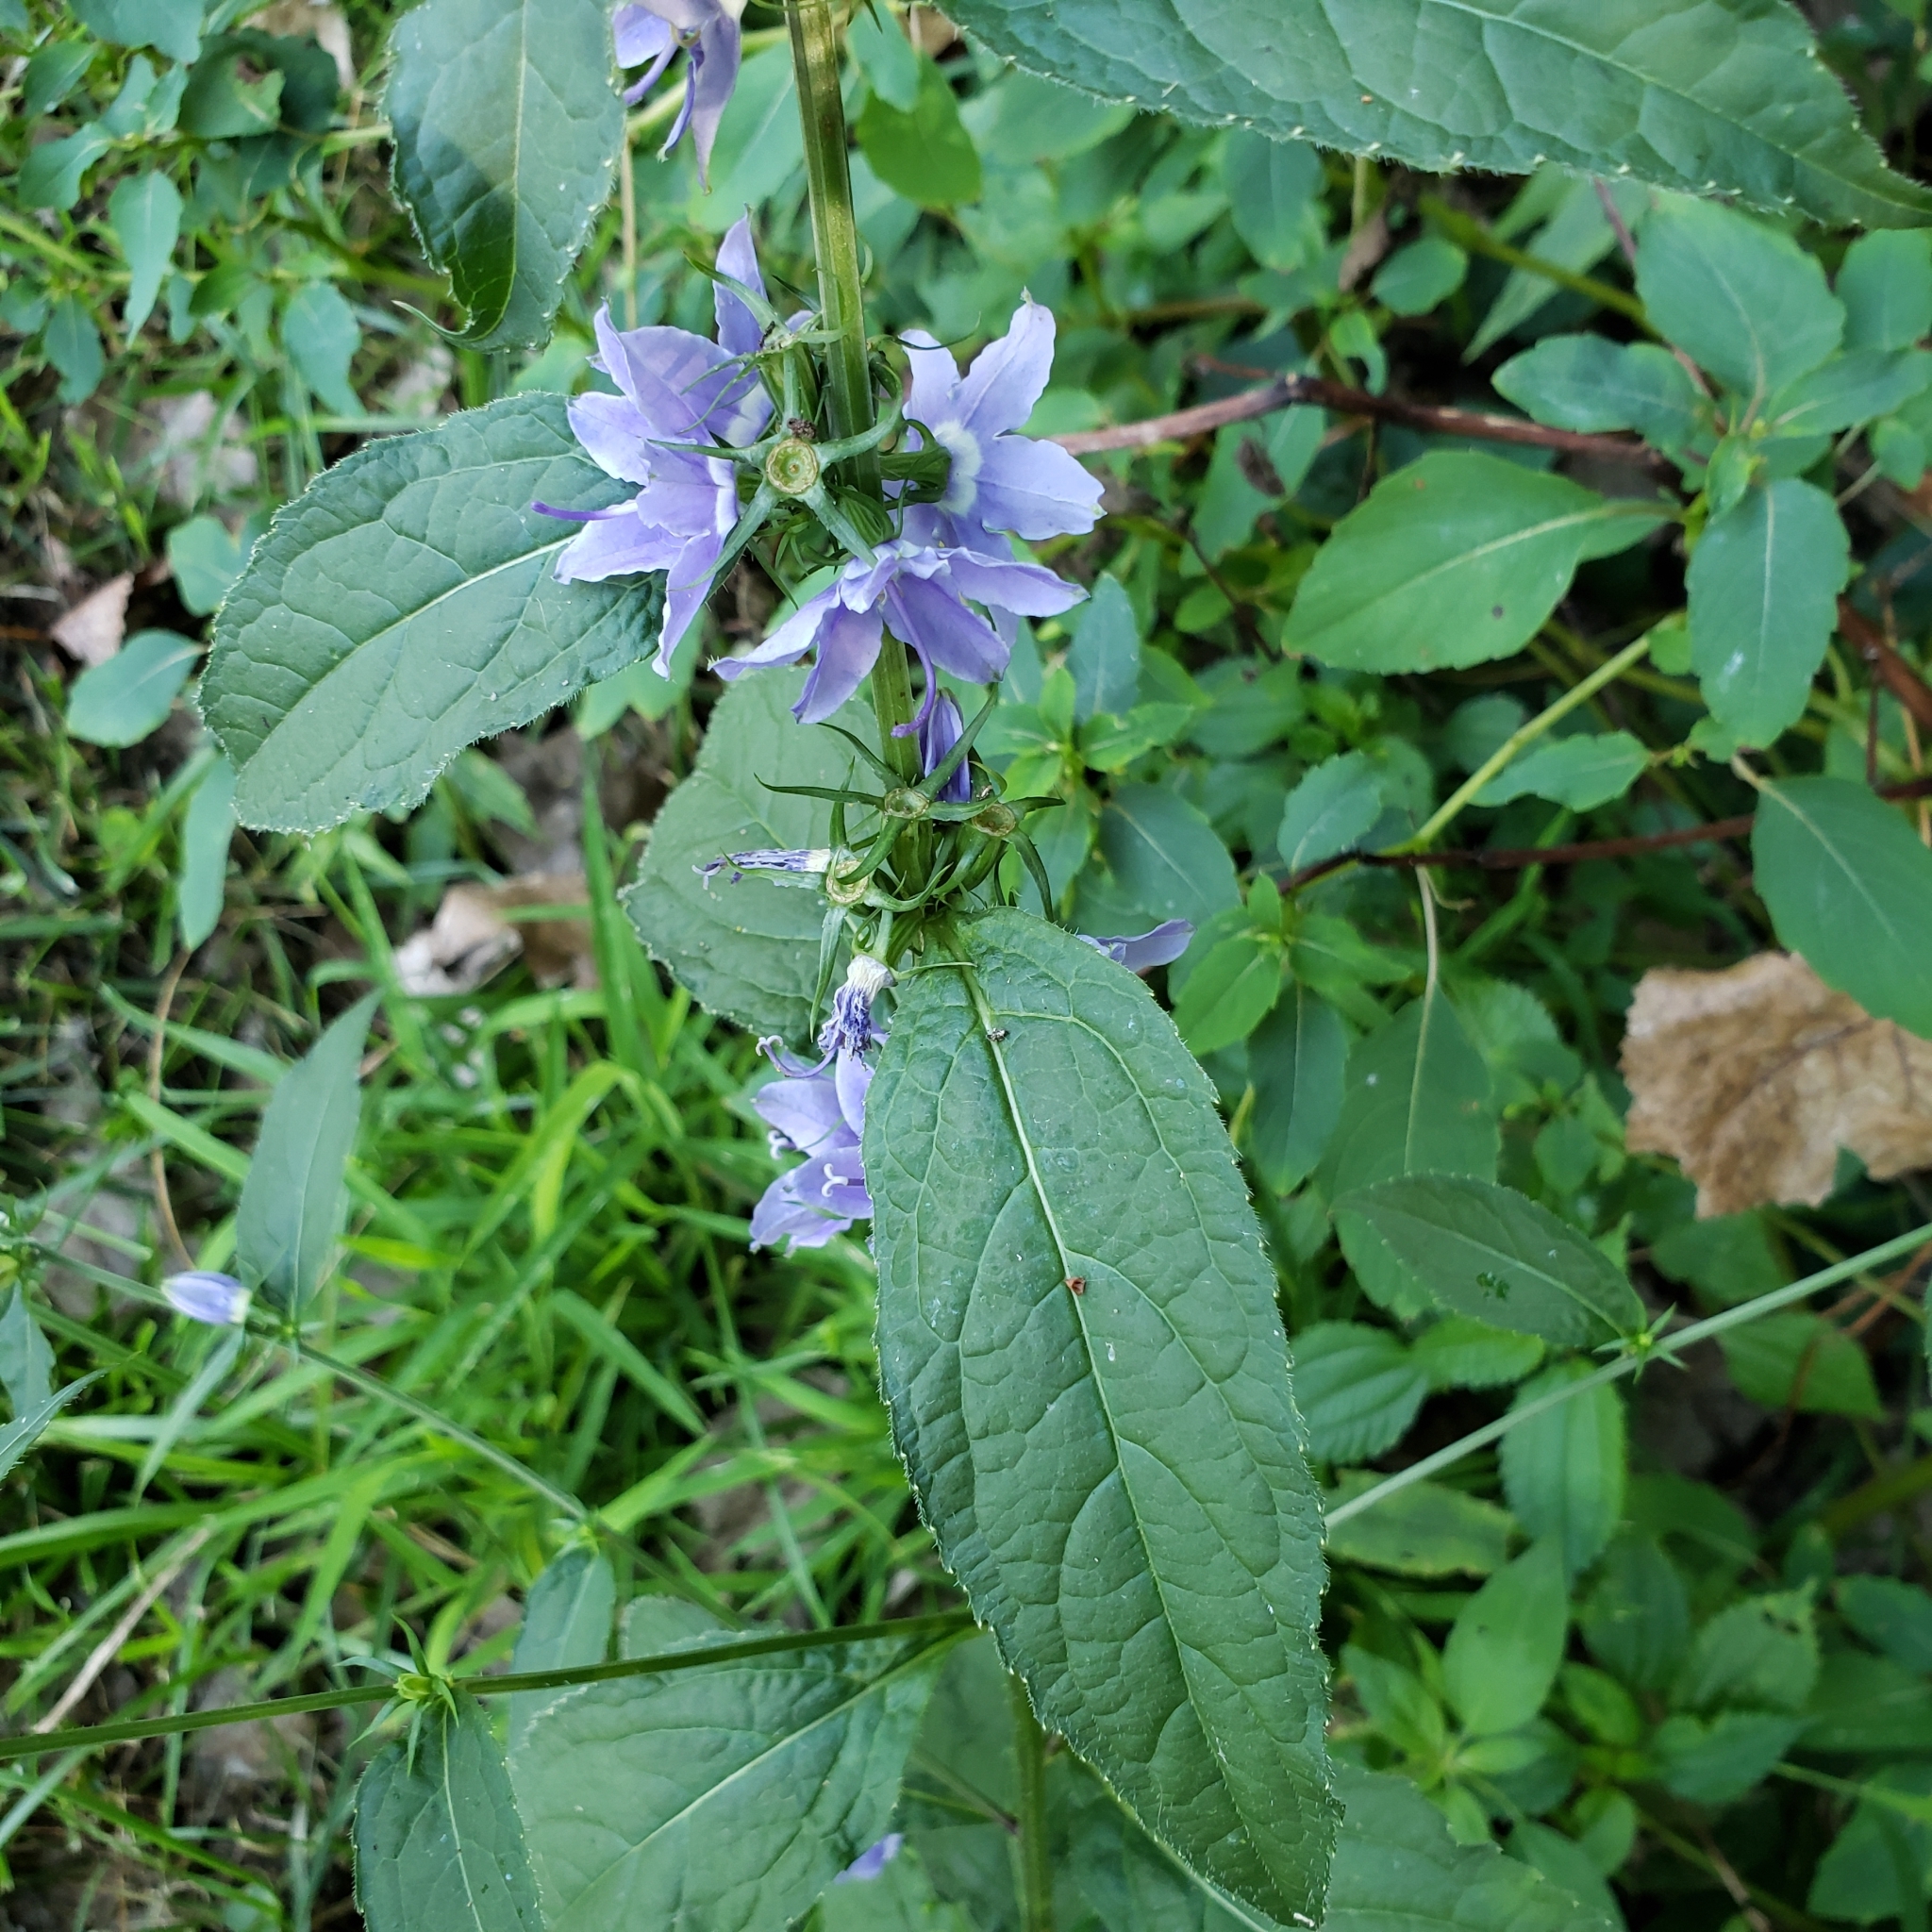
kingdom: Plantae
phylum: Tracheophyta
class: Magnoliopsida
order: Asterales
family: Campanulaceae
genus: Campanulastrum
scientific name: Campanulastrum americanum
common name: American bellflower
